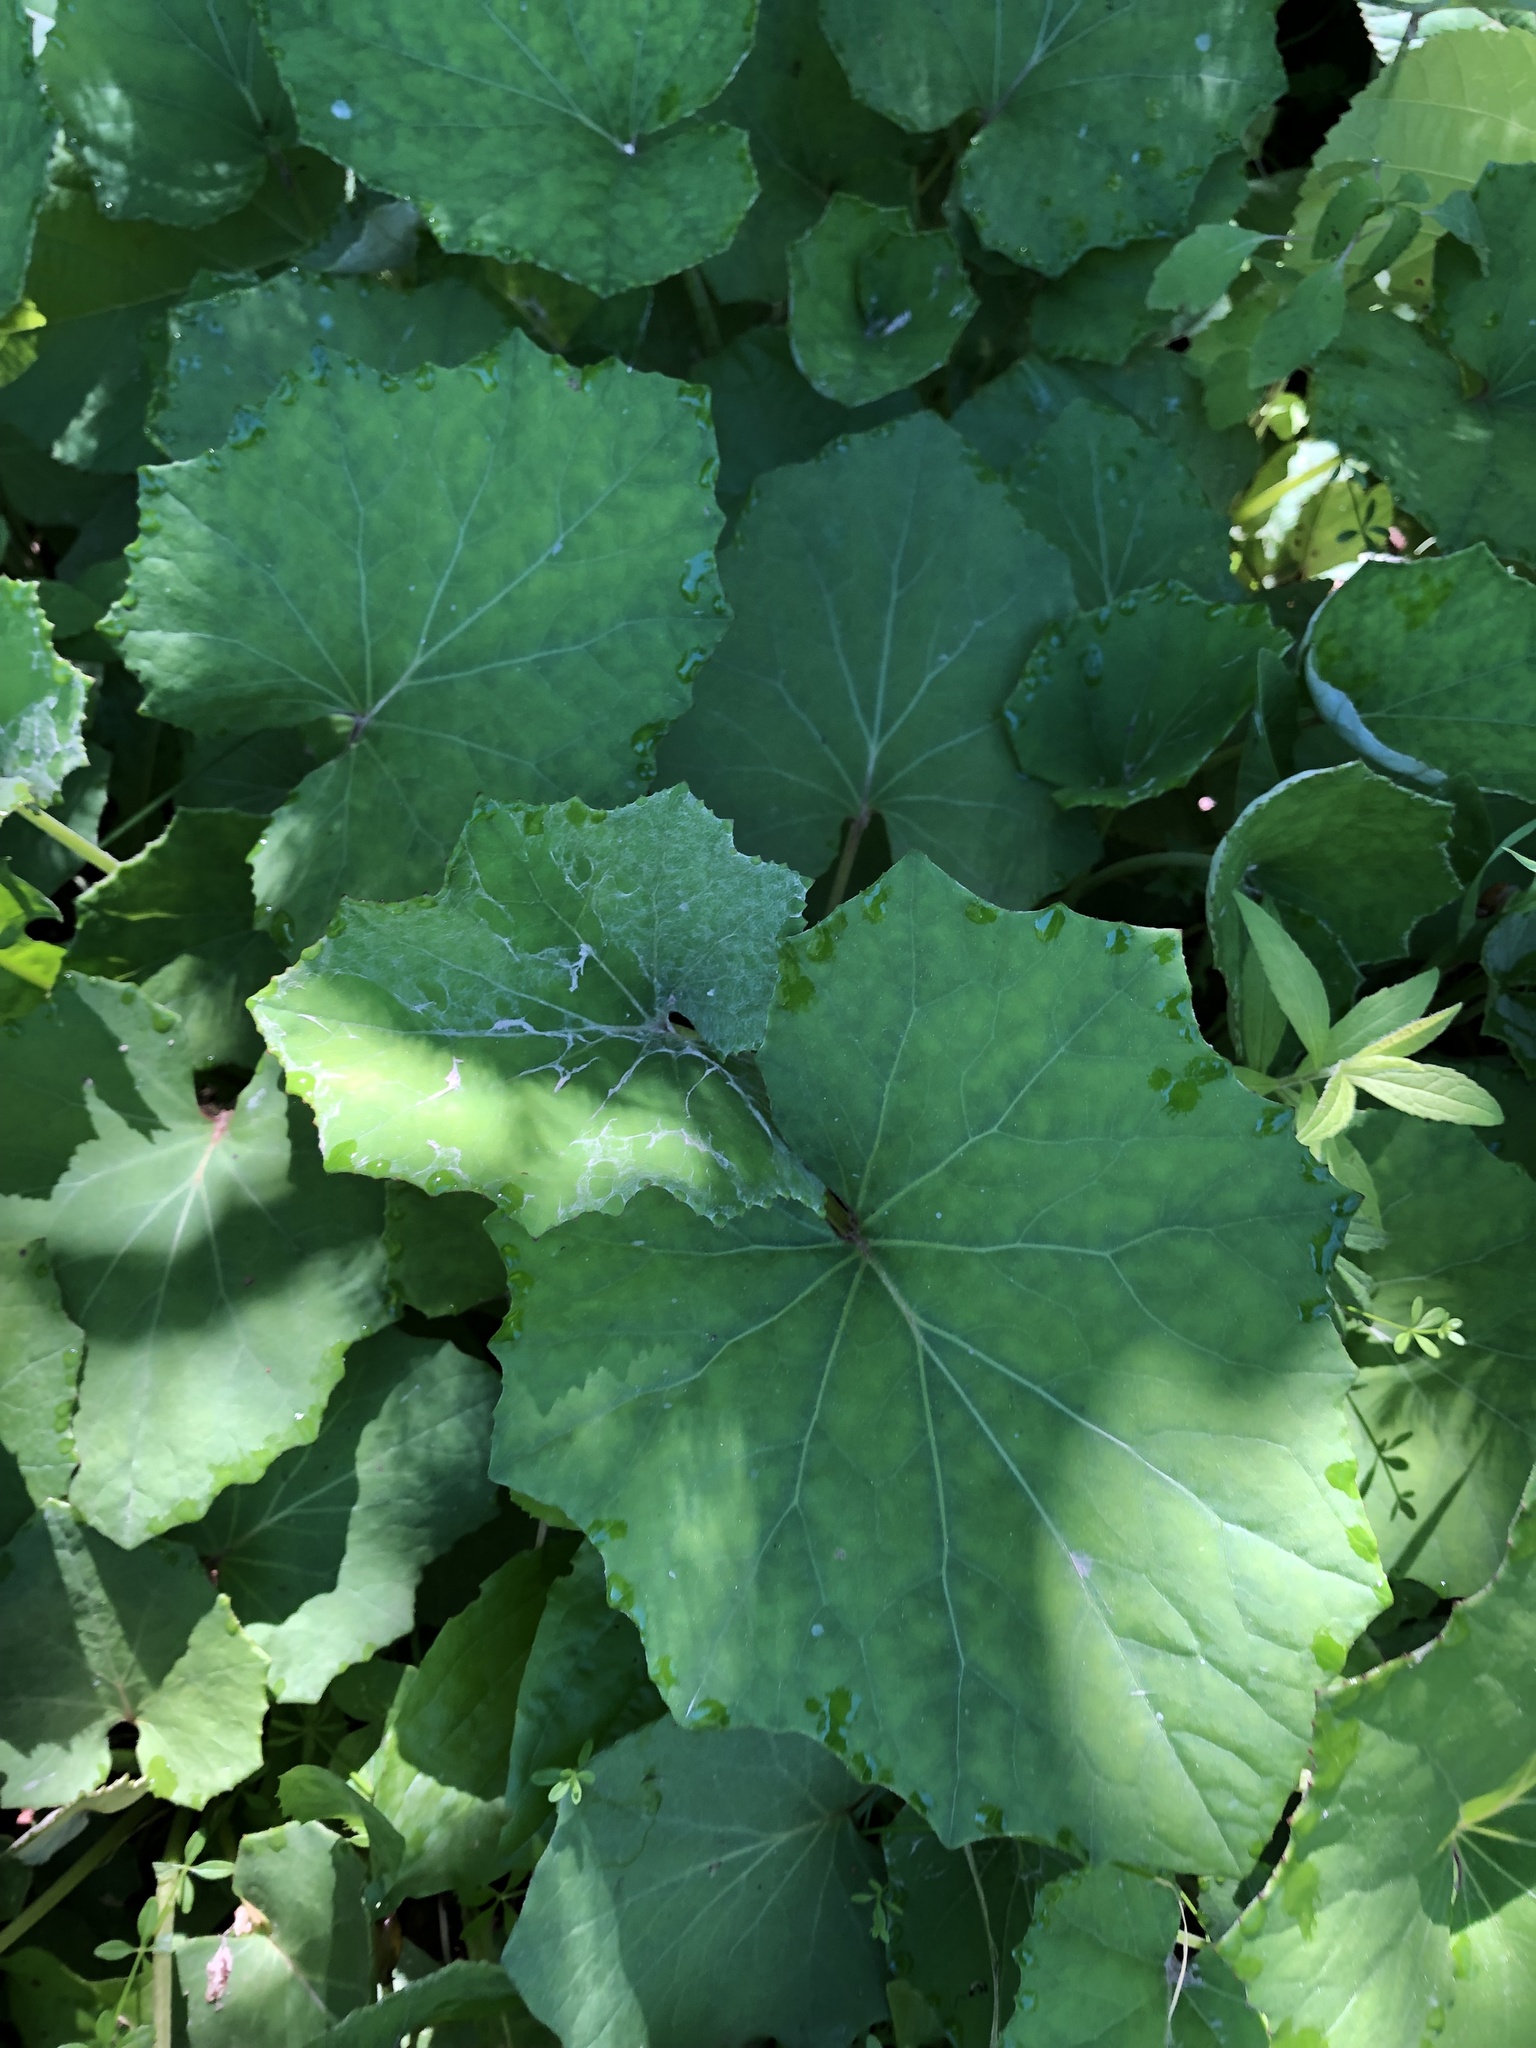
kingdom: Plantae
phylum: Tracheophyta
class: Magnoliopsida
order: Asterales
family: Asteraceae
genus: Tussilago
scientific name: Tussilago farfara
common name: Coltsfoot
